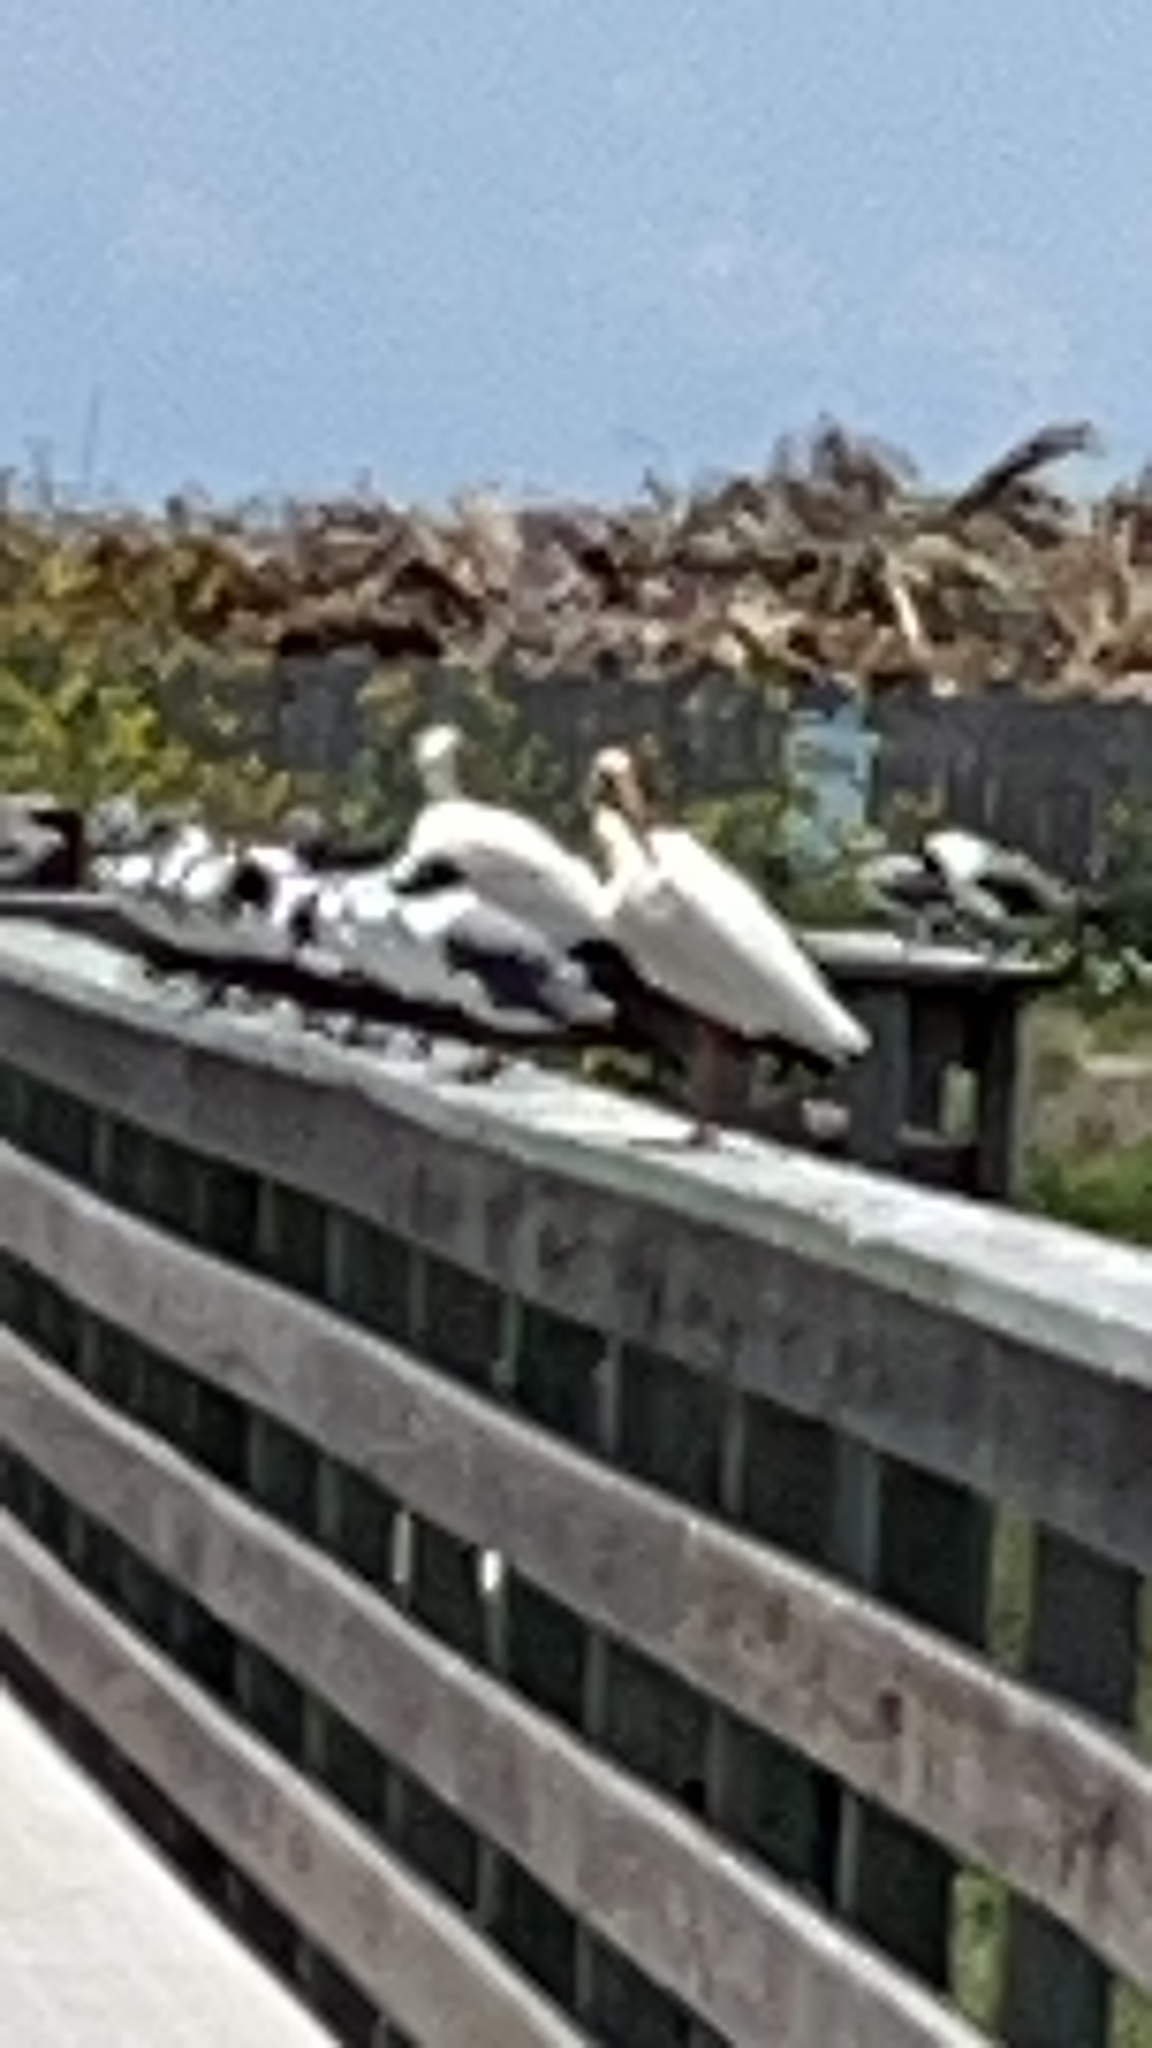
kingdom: Animalia
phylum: Chordata
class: Aves
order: Pelecaniformes
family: Threskiornithidae
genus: Eudocimus
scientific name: Eudocimus albus
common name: White ibis
